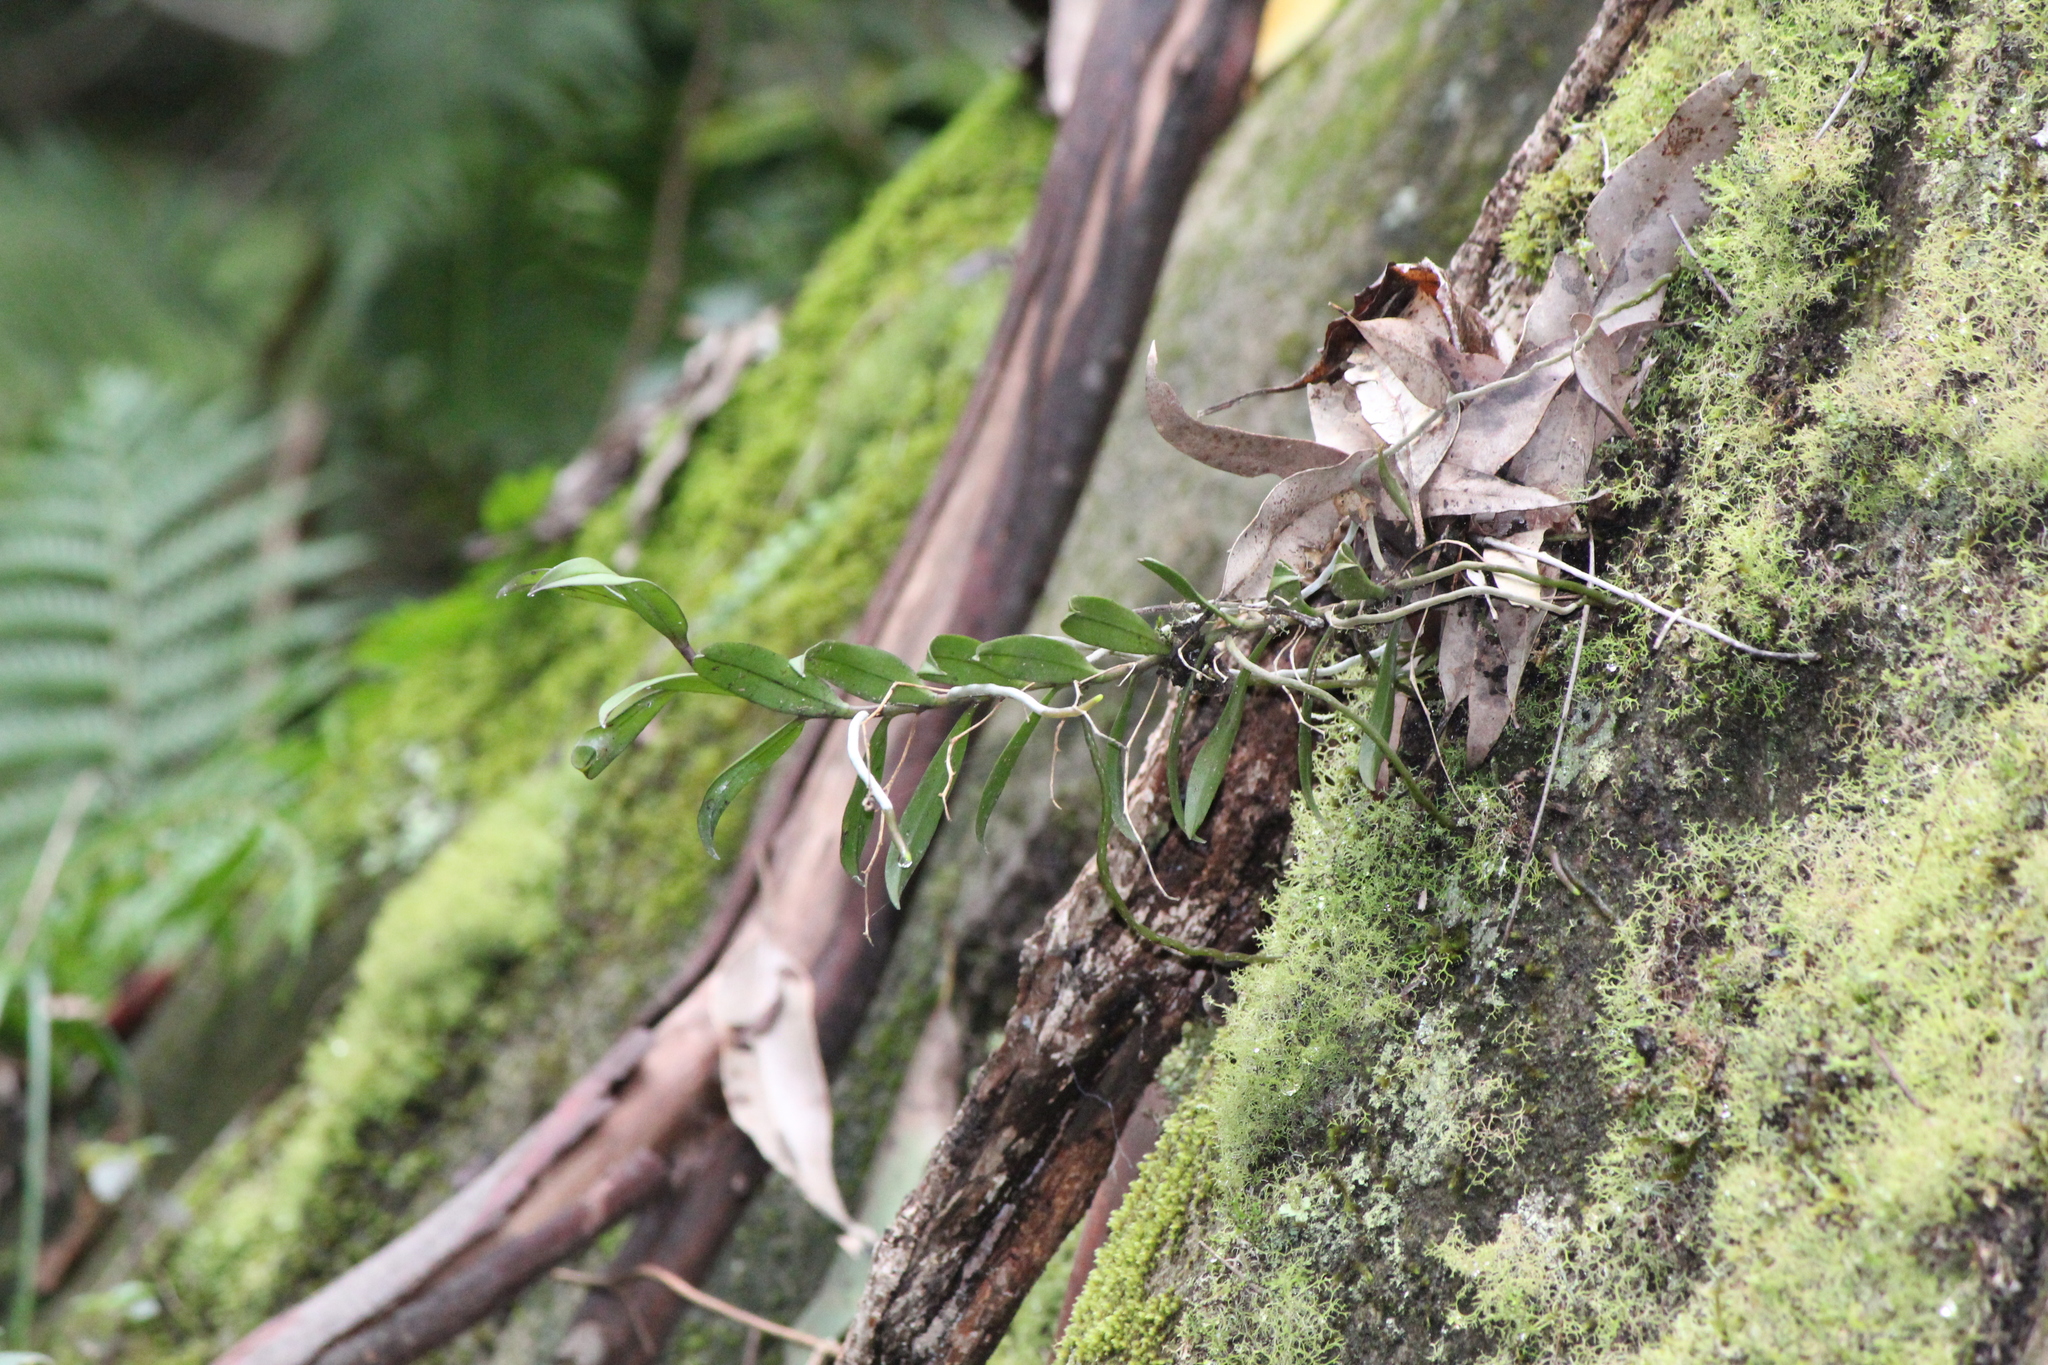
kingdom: Plantae
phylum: Tracheophyta
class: Liliopsida
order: Asparagales
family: Orchidaceae
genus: Plectorrhiza
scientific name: Plectorrhiza tridentata
